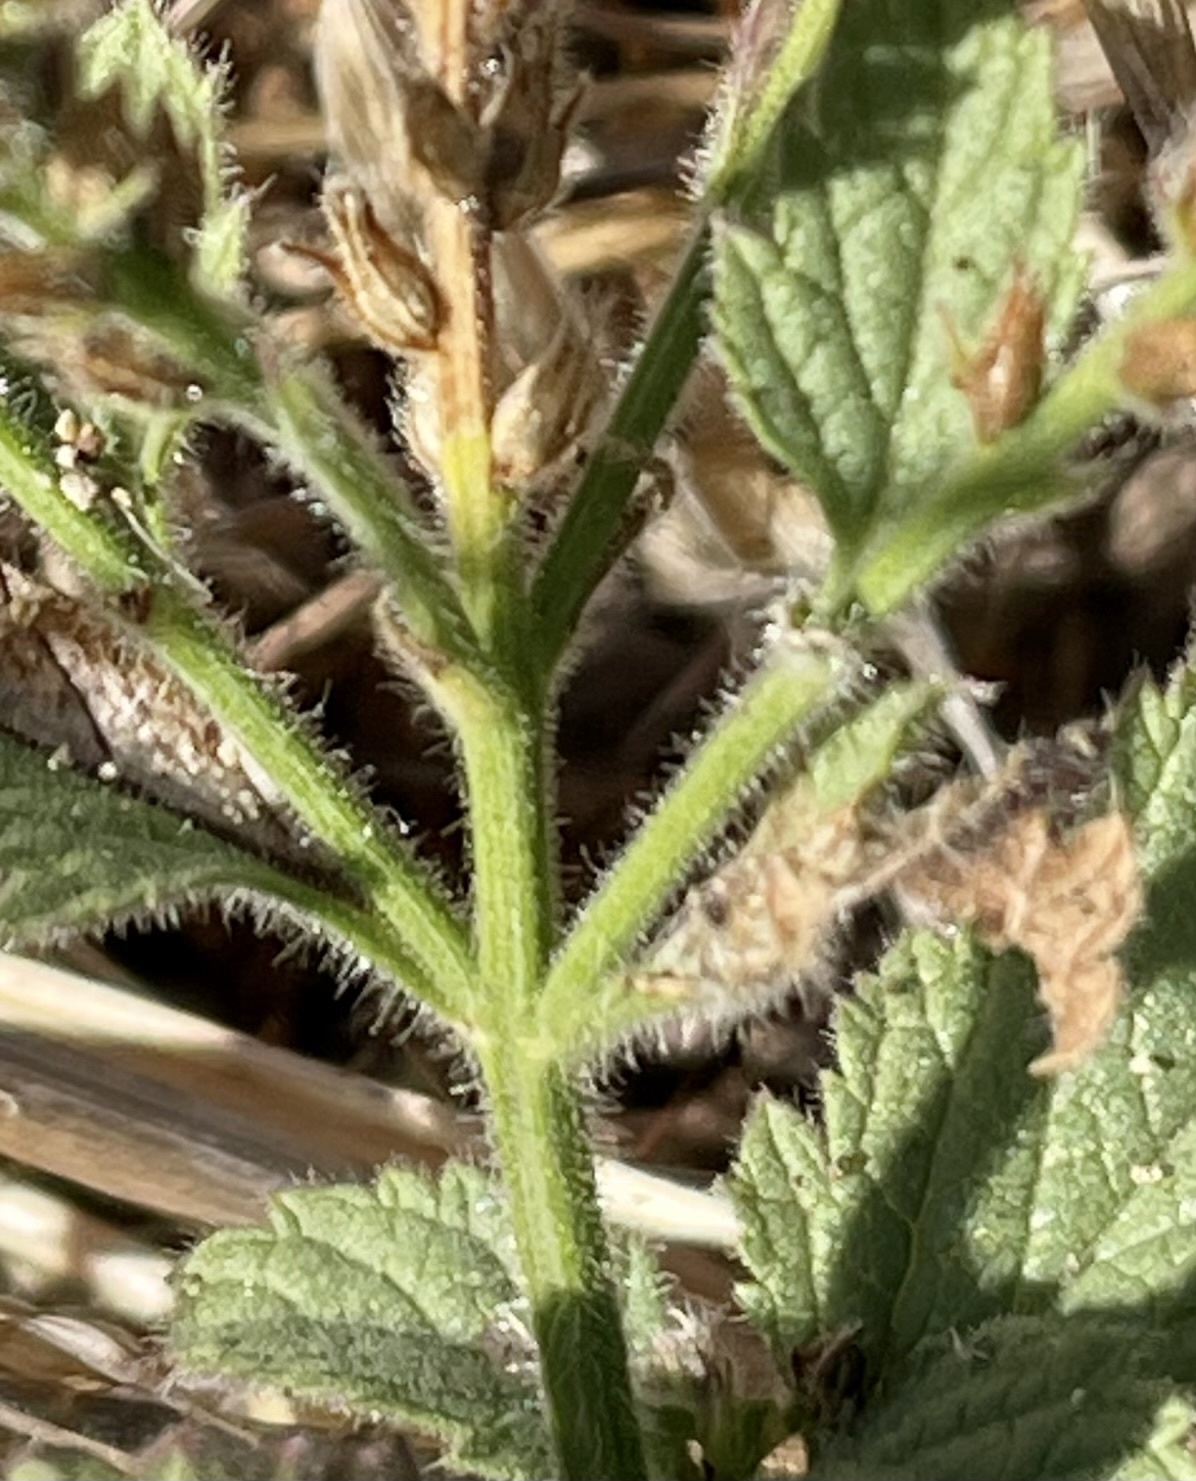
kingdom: Plantae
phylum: Tracheophyta
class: Magnoliopsida
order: Lamiales
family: Verbenaceae
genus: Verbena
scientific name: Verbena lasiostachys
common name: Vervain
